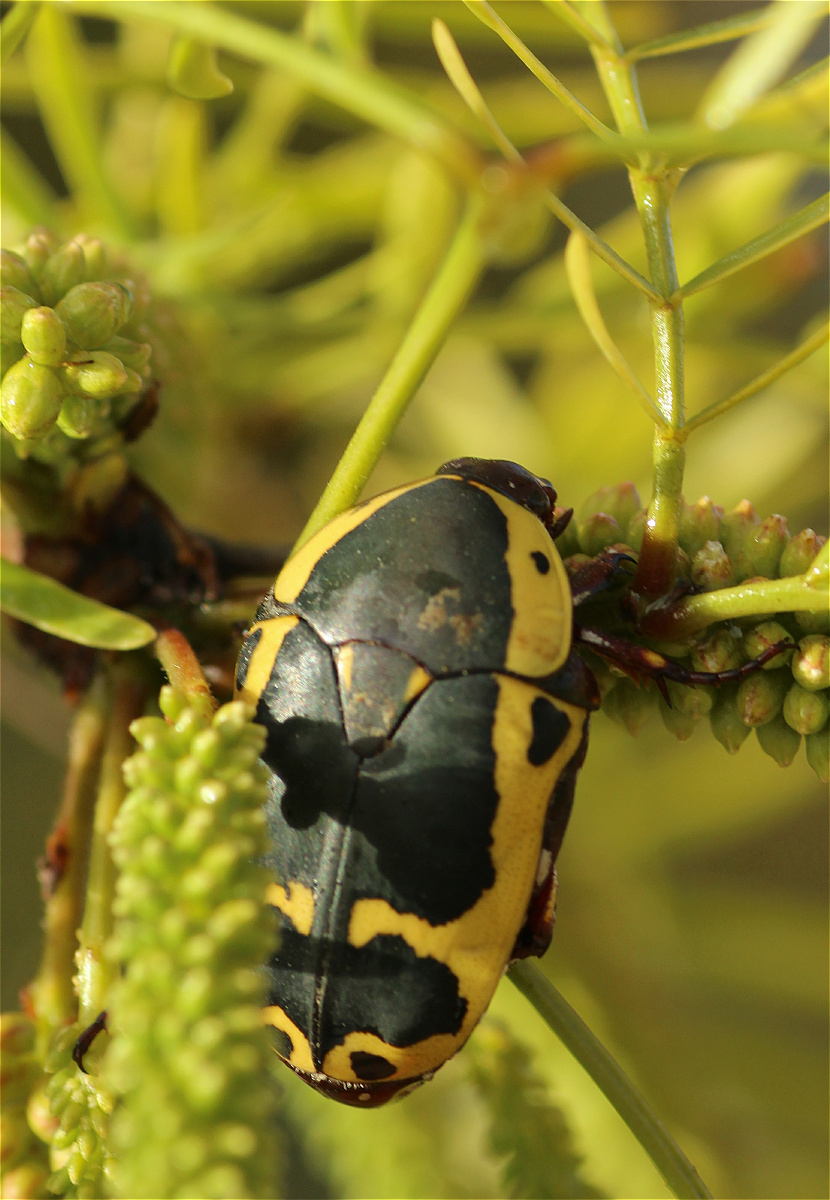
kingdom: Animalia
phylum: Arthropoda
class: Insecta
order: Coleoptera
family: Scarabaeidae
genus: Pachnoda
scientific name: Pachnoda sinuata
